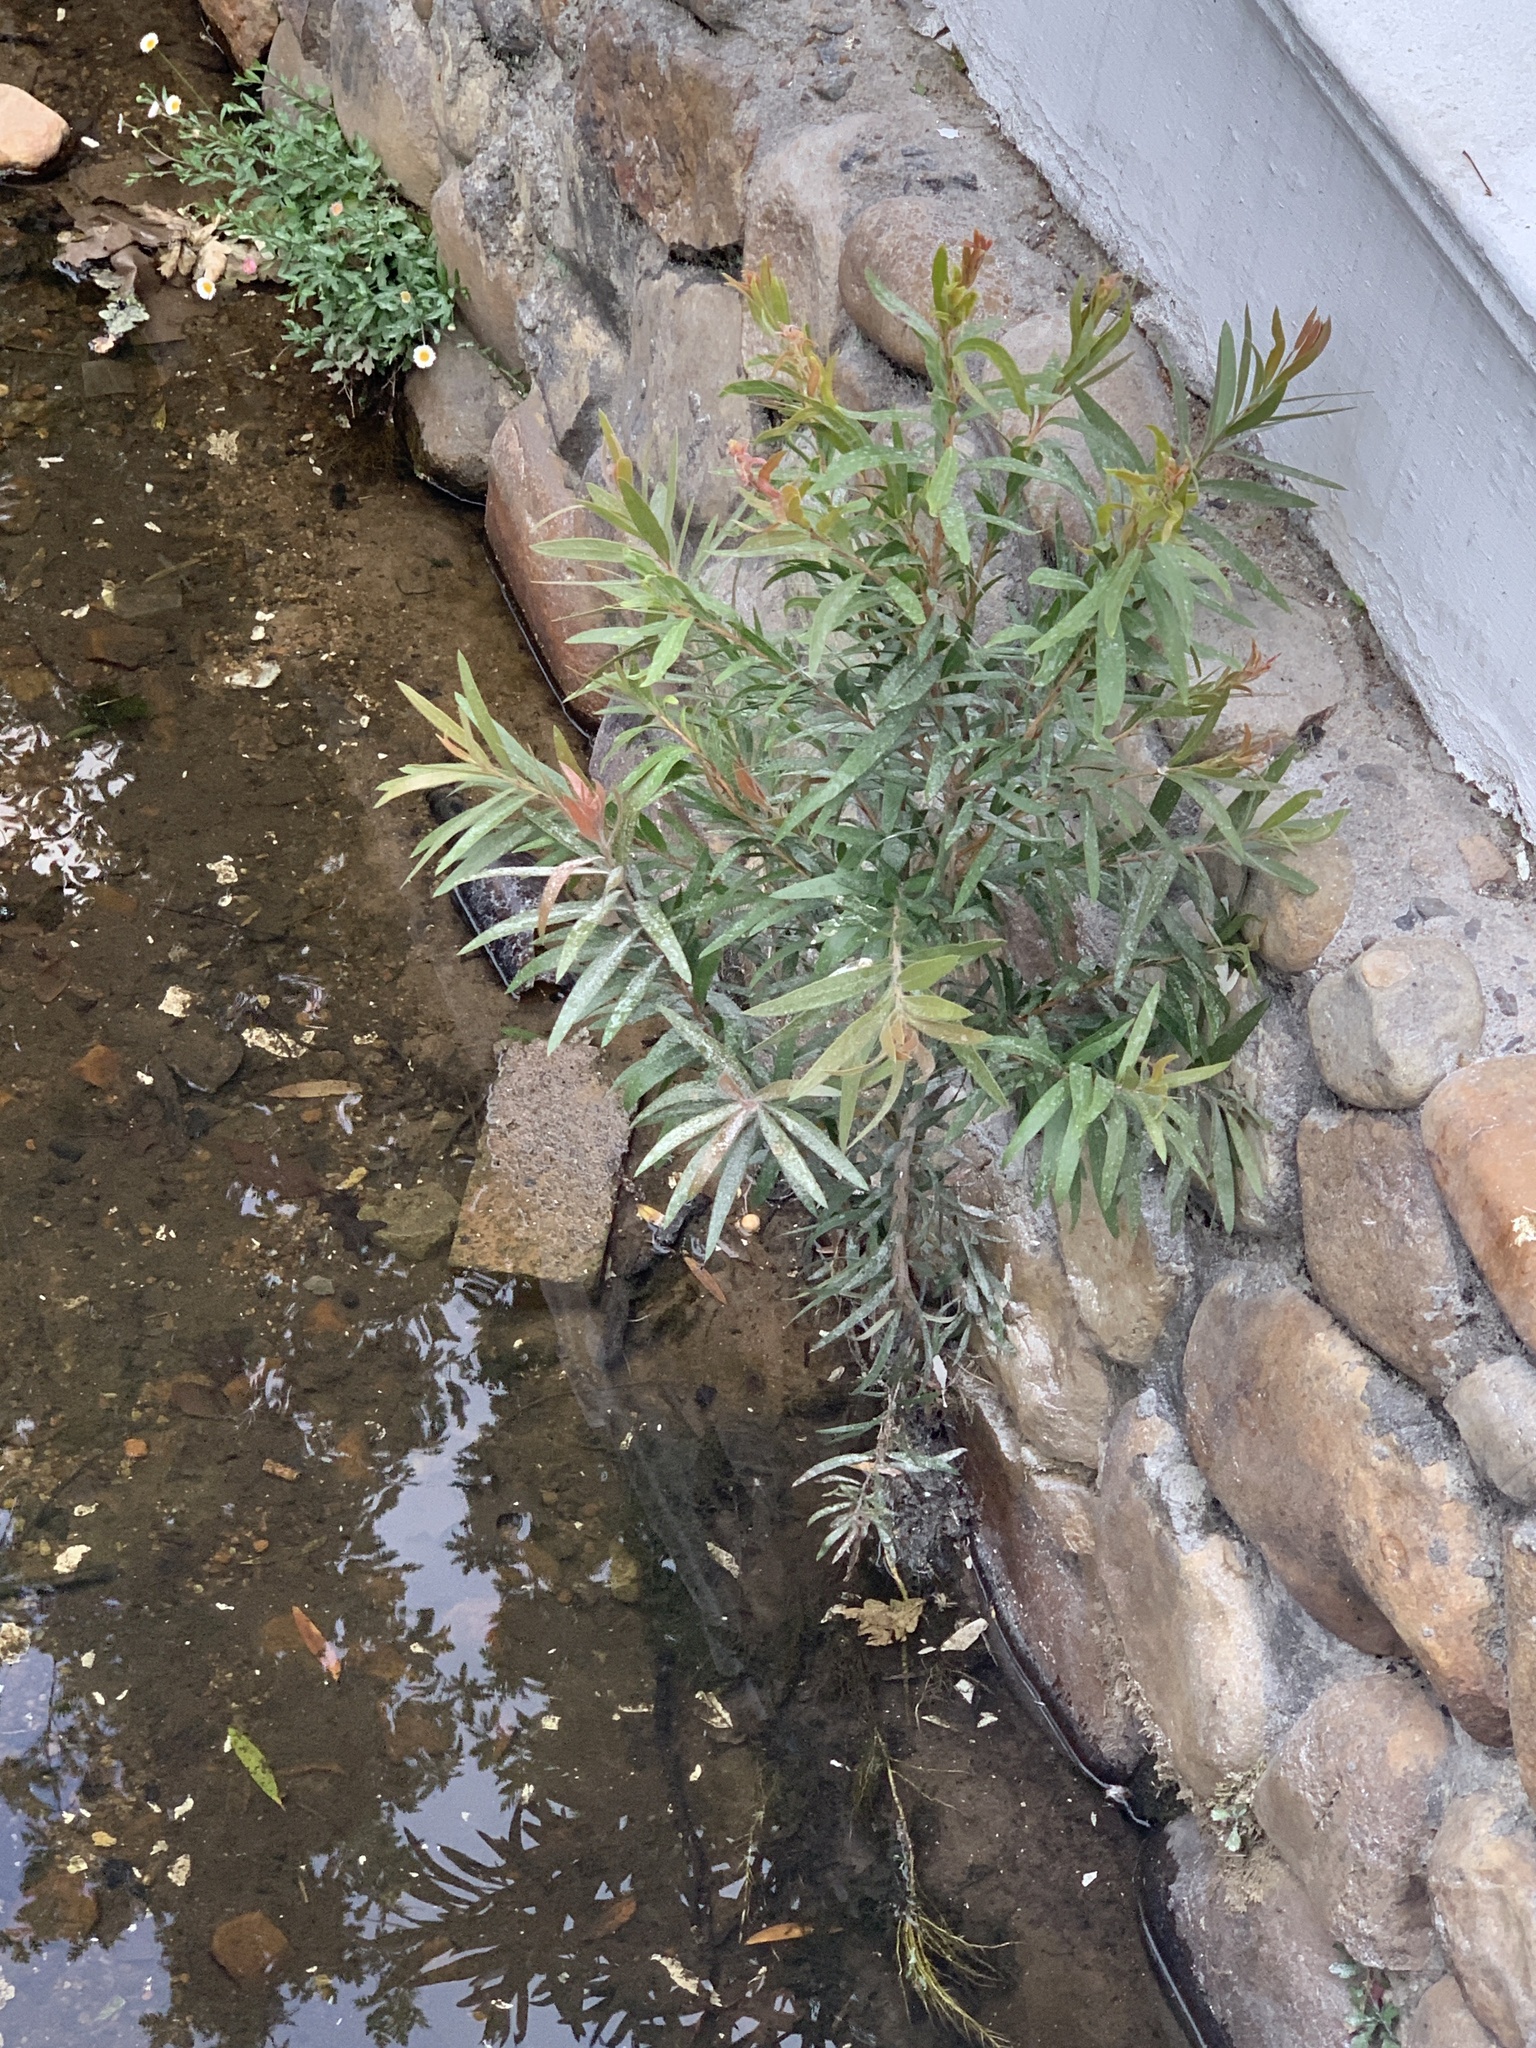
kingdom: Plantae
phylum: Tracheophyta
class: Magnoliopsida
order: Myrtales
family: Myrtaceae
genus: Callistemon
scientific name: Callistemon viminalis
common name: Drooping bottlebrush
